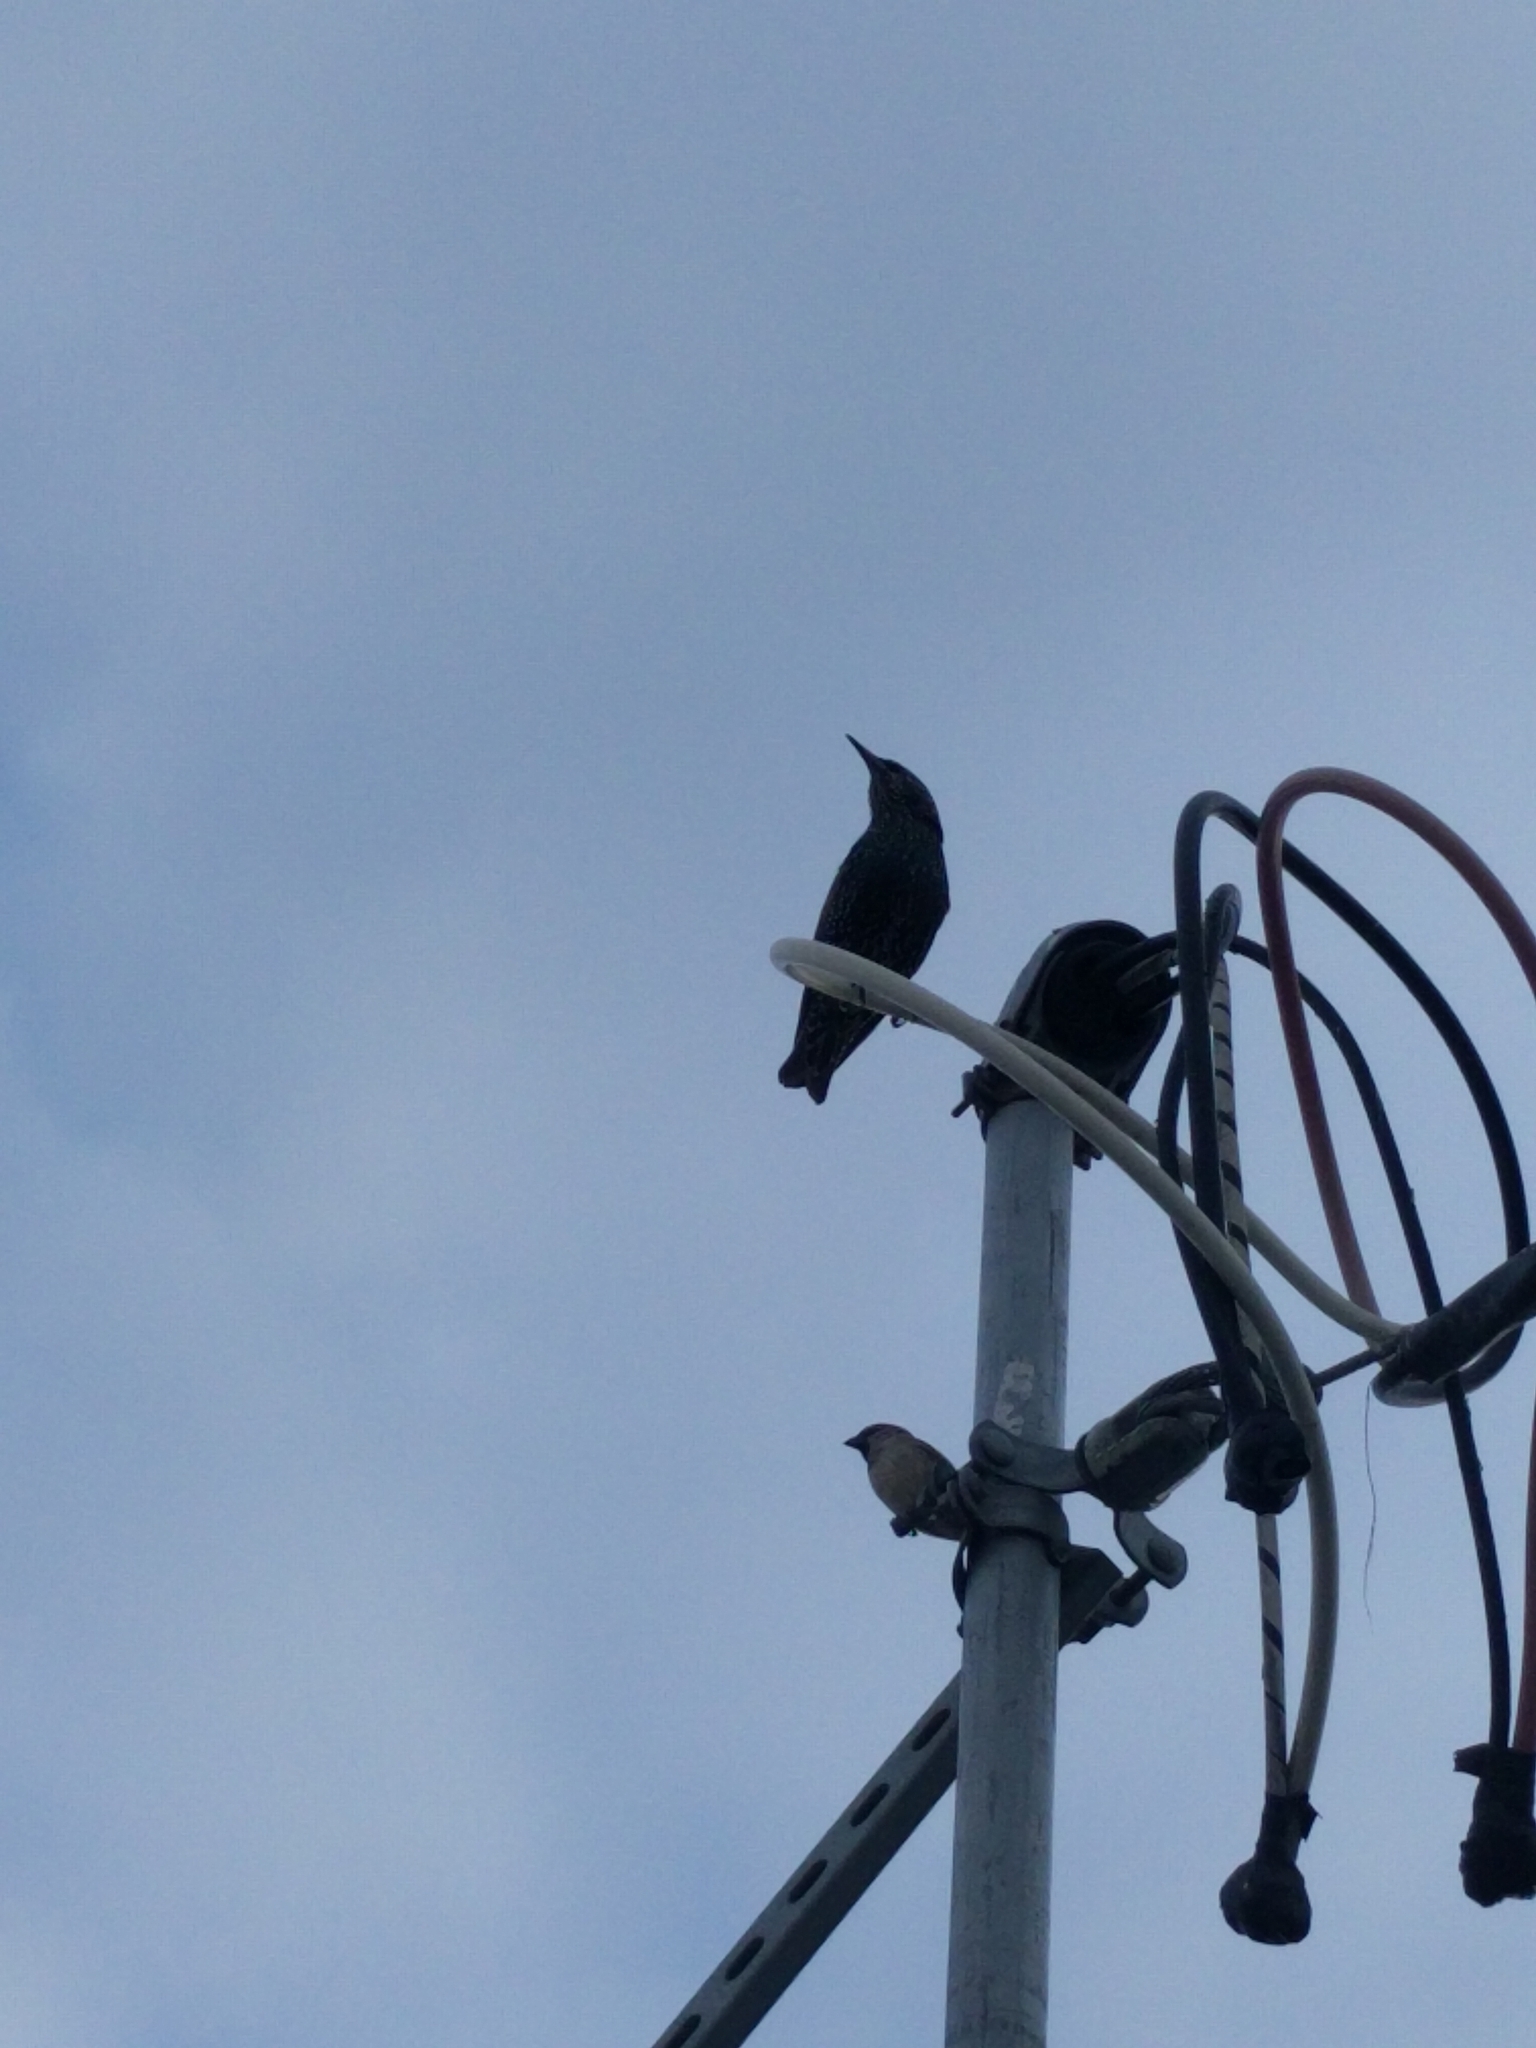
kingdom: Animalia
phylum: Chordata
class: Aves
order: Passeriformes
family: Sturnidae
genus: Sturnus
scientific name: Sturnus vulgaris
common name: Common starling
